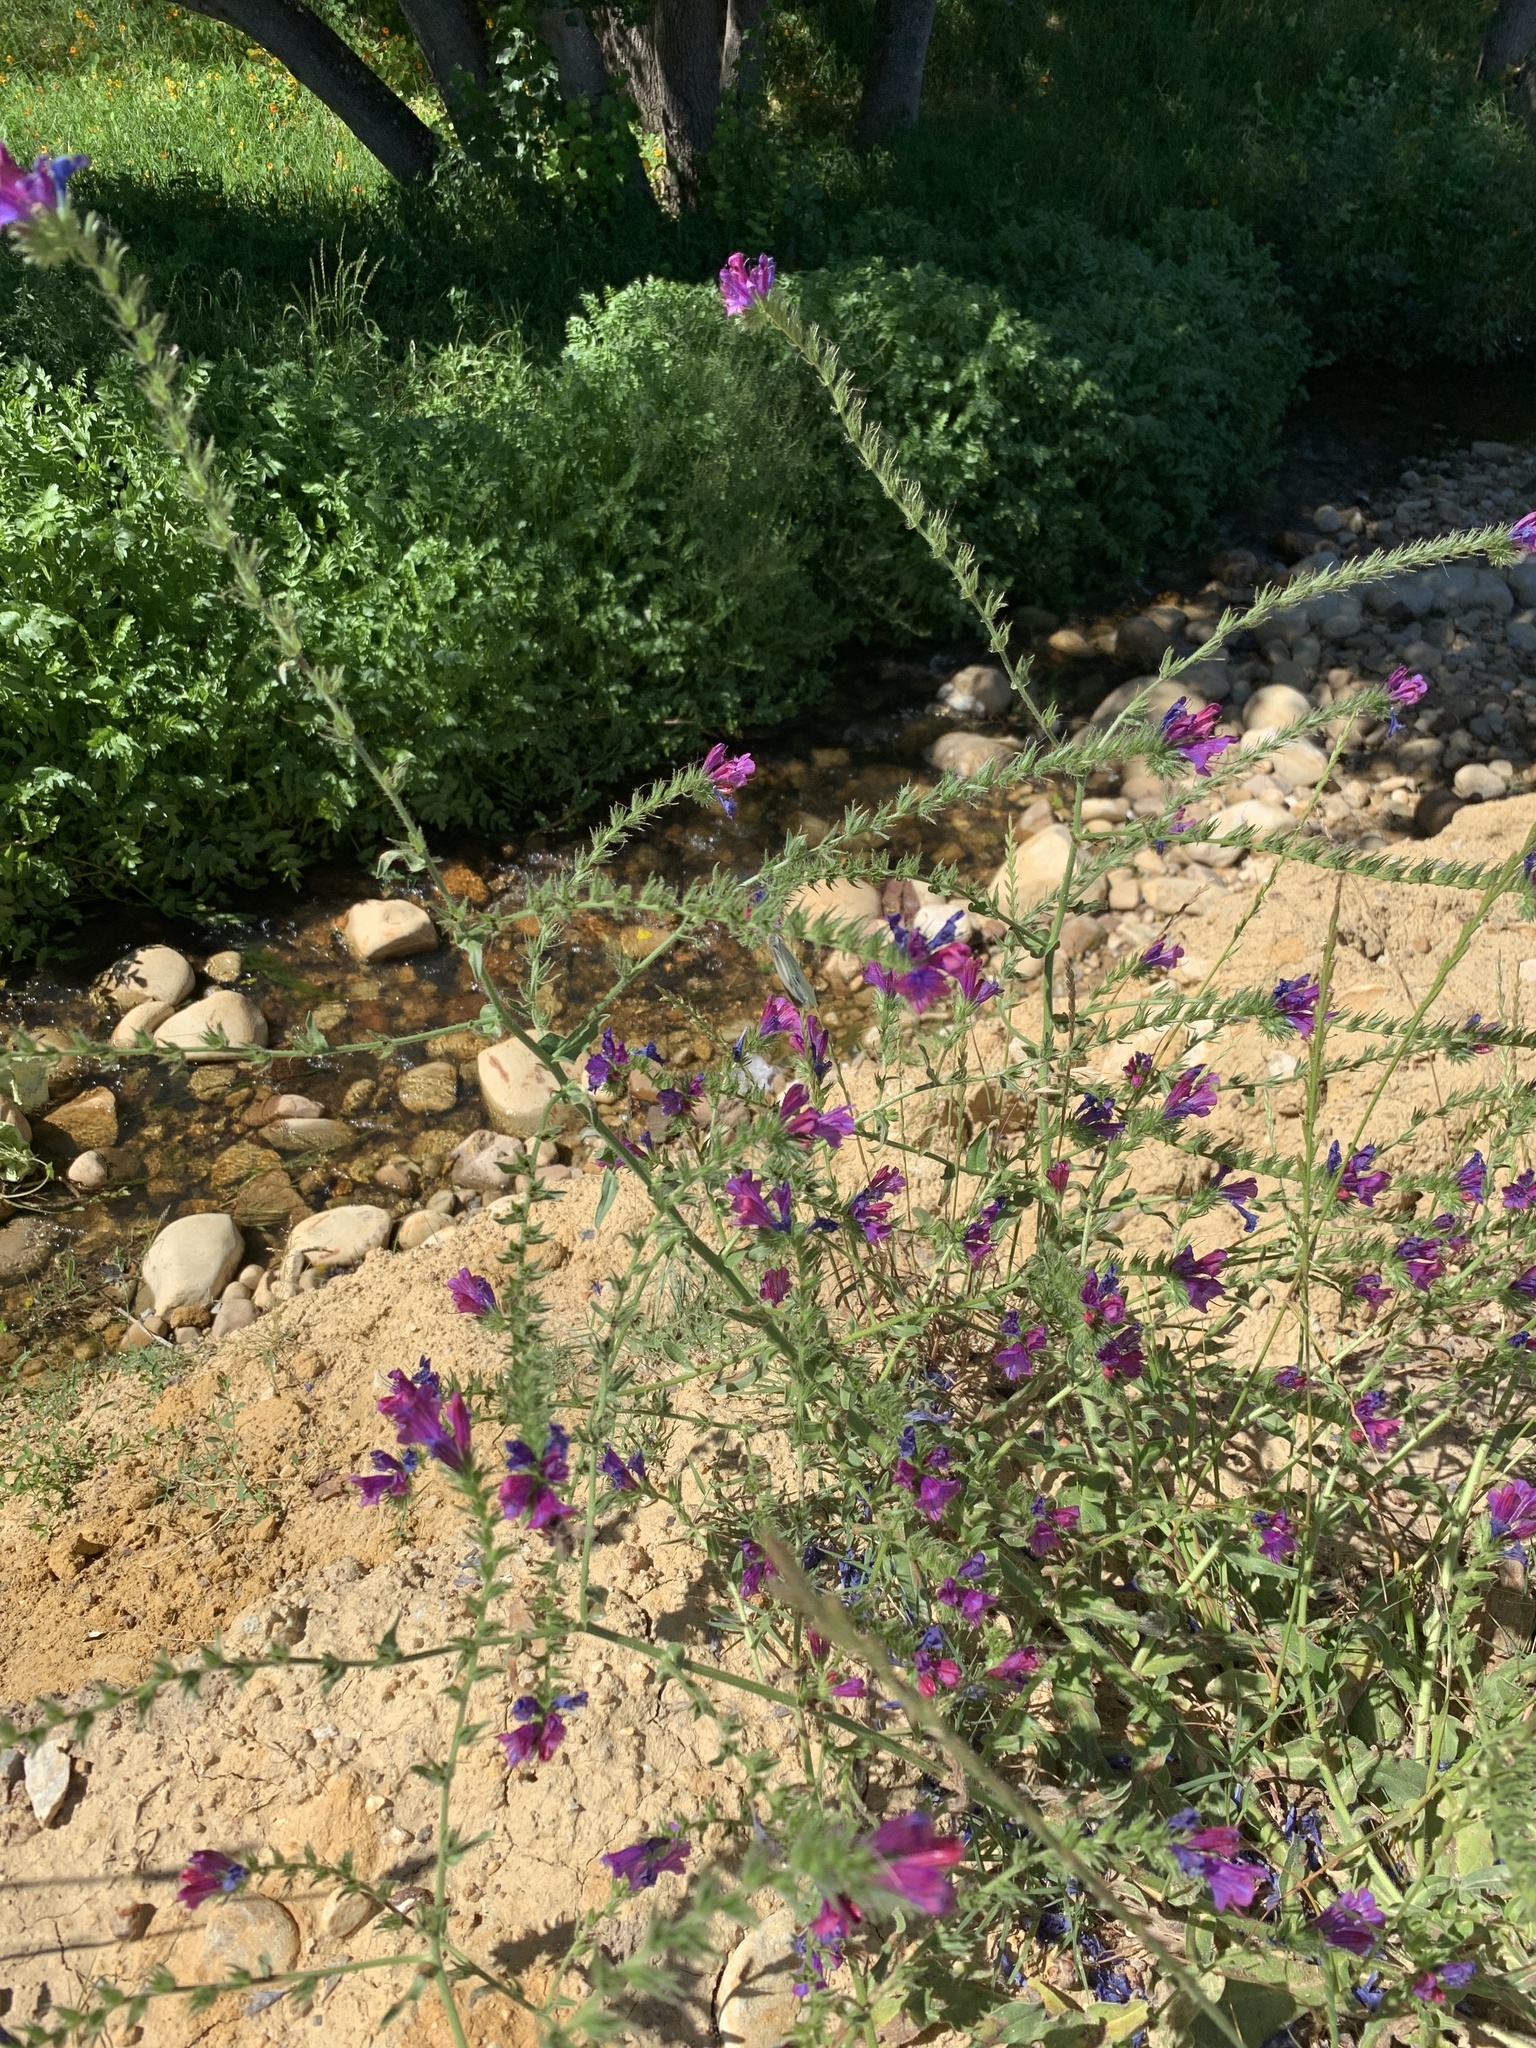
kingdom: Plantae
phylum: Tracheophyta
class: Magnoliopsida
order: Boraginales
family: Boraginaceae
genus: Echium
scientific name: Echium plantagineum
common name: Purple viper's-bugloss
